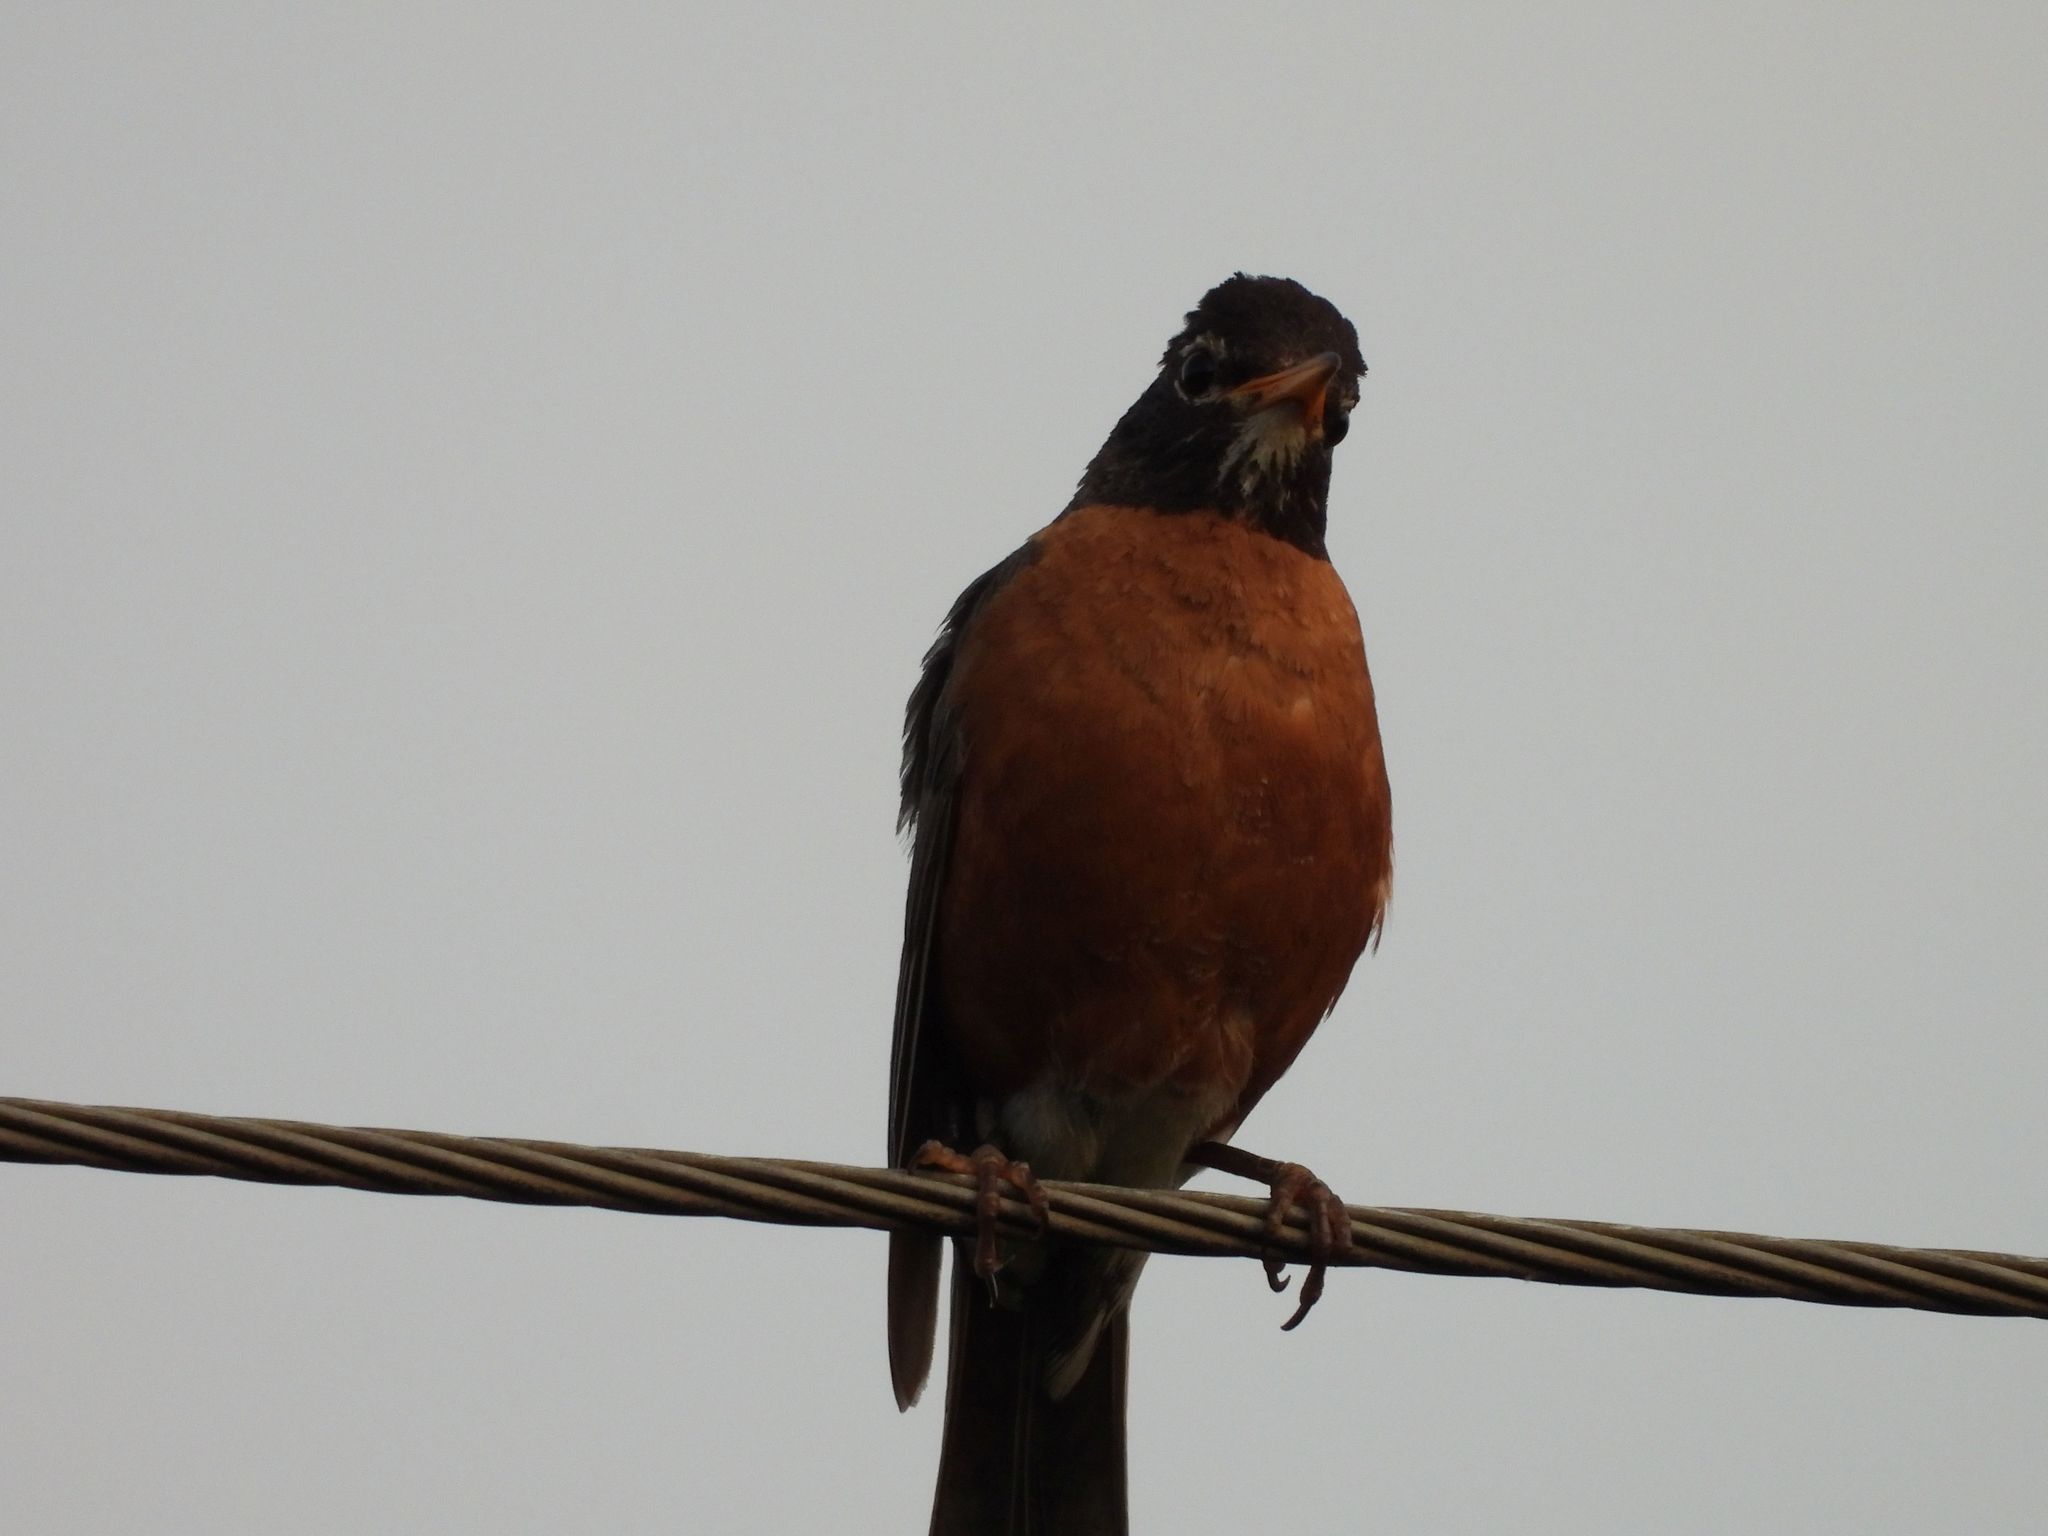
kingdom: Animalia
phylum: Chordata
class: Aves
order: Passeriformes
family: Turdidae
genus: Turdus
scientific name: Turdus migratorius
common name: American robin
